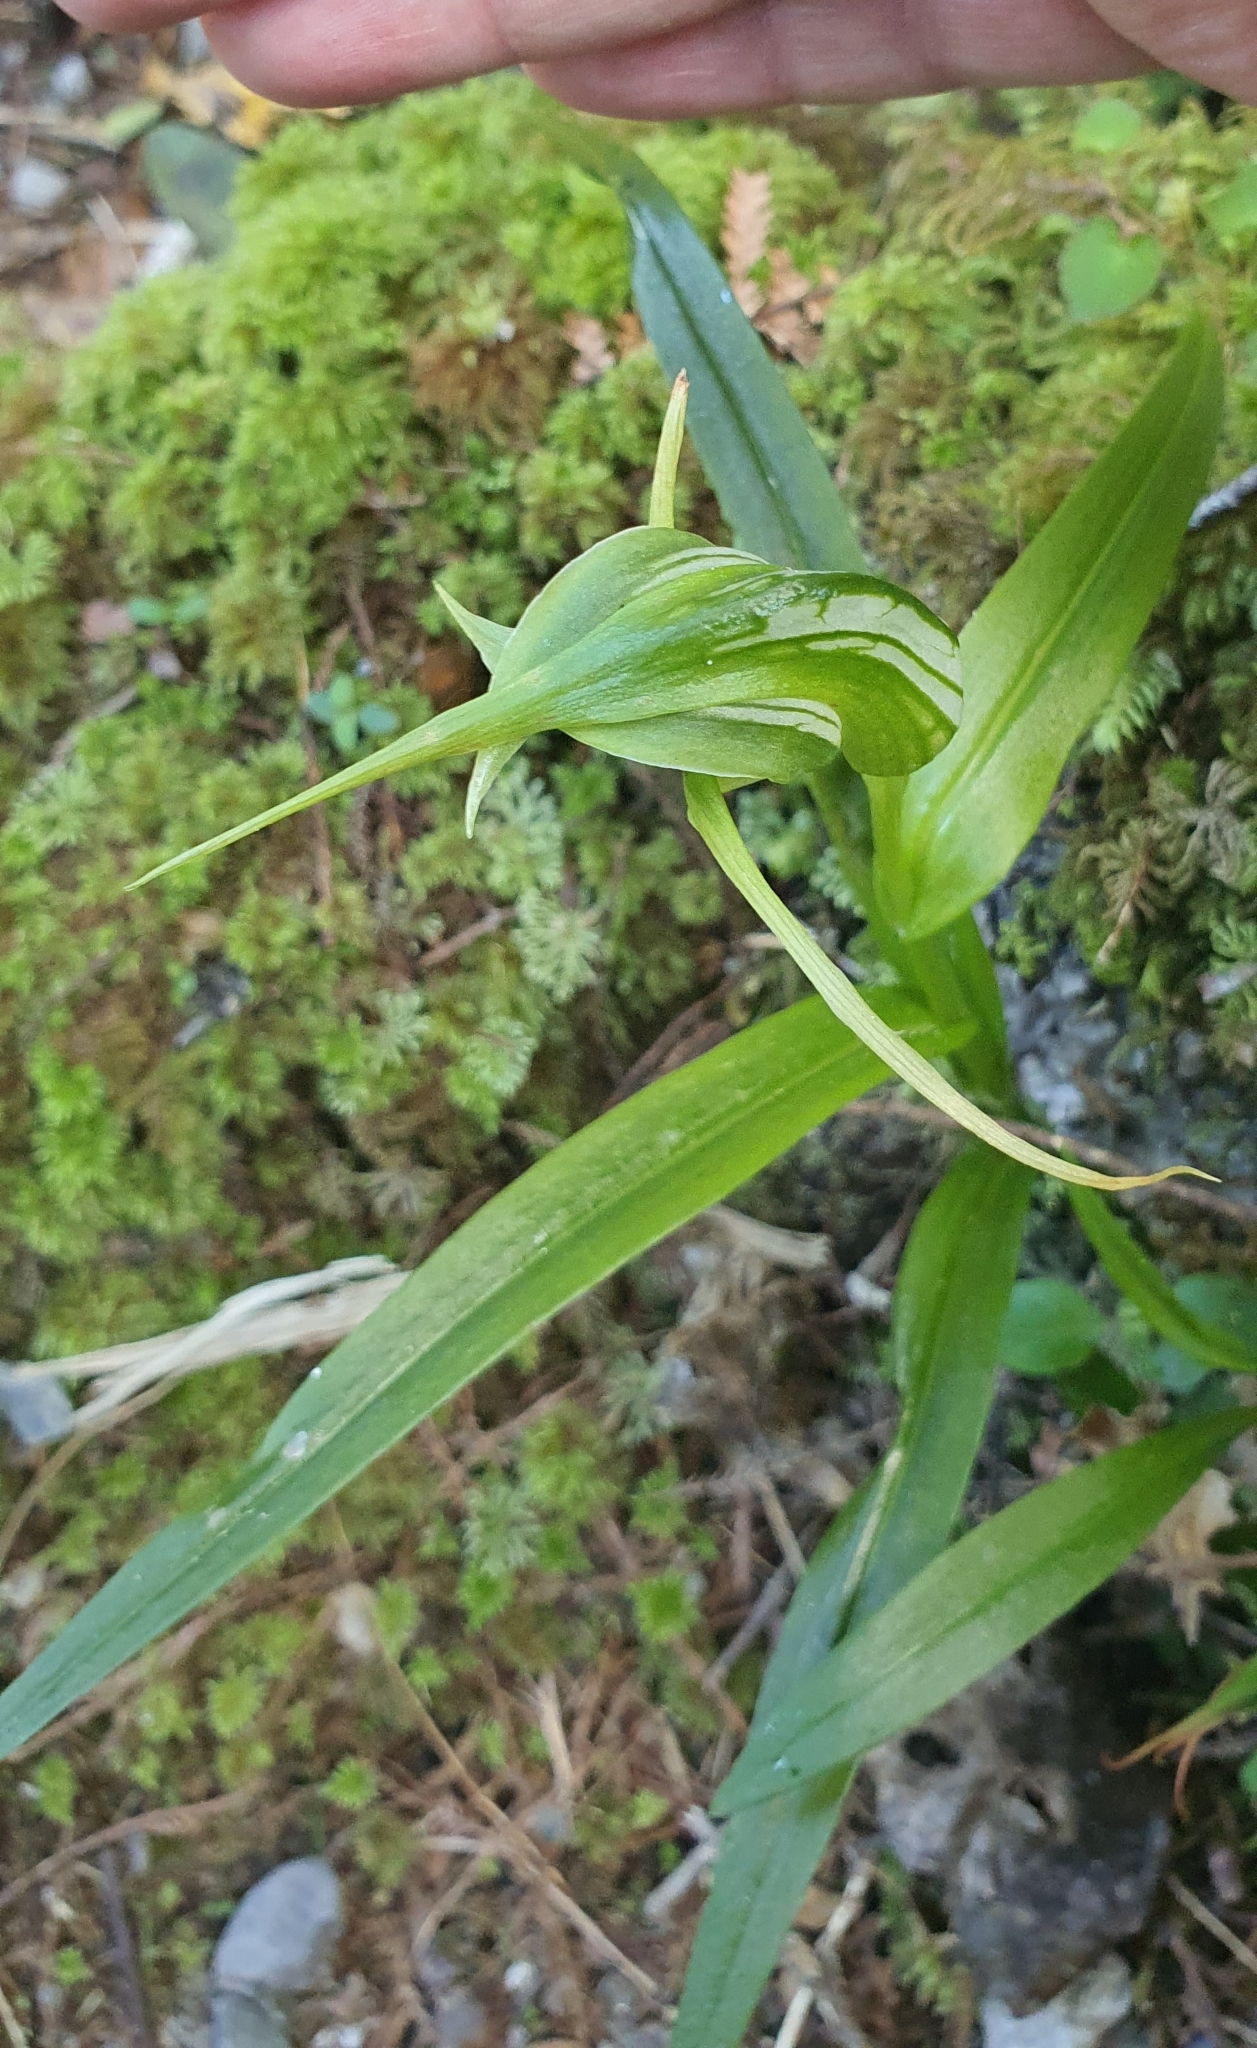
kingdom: Plantae
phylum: Tracheophyta
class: Liliopsida
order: Asparagales
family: Orchidaceae
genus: Pterostylis
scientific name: Pterostylis banksii
